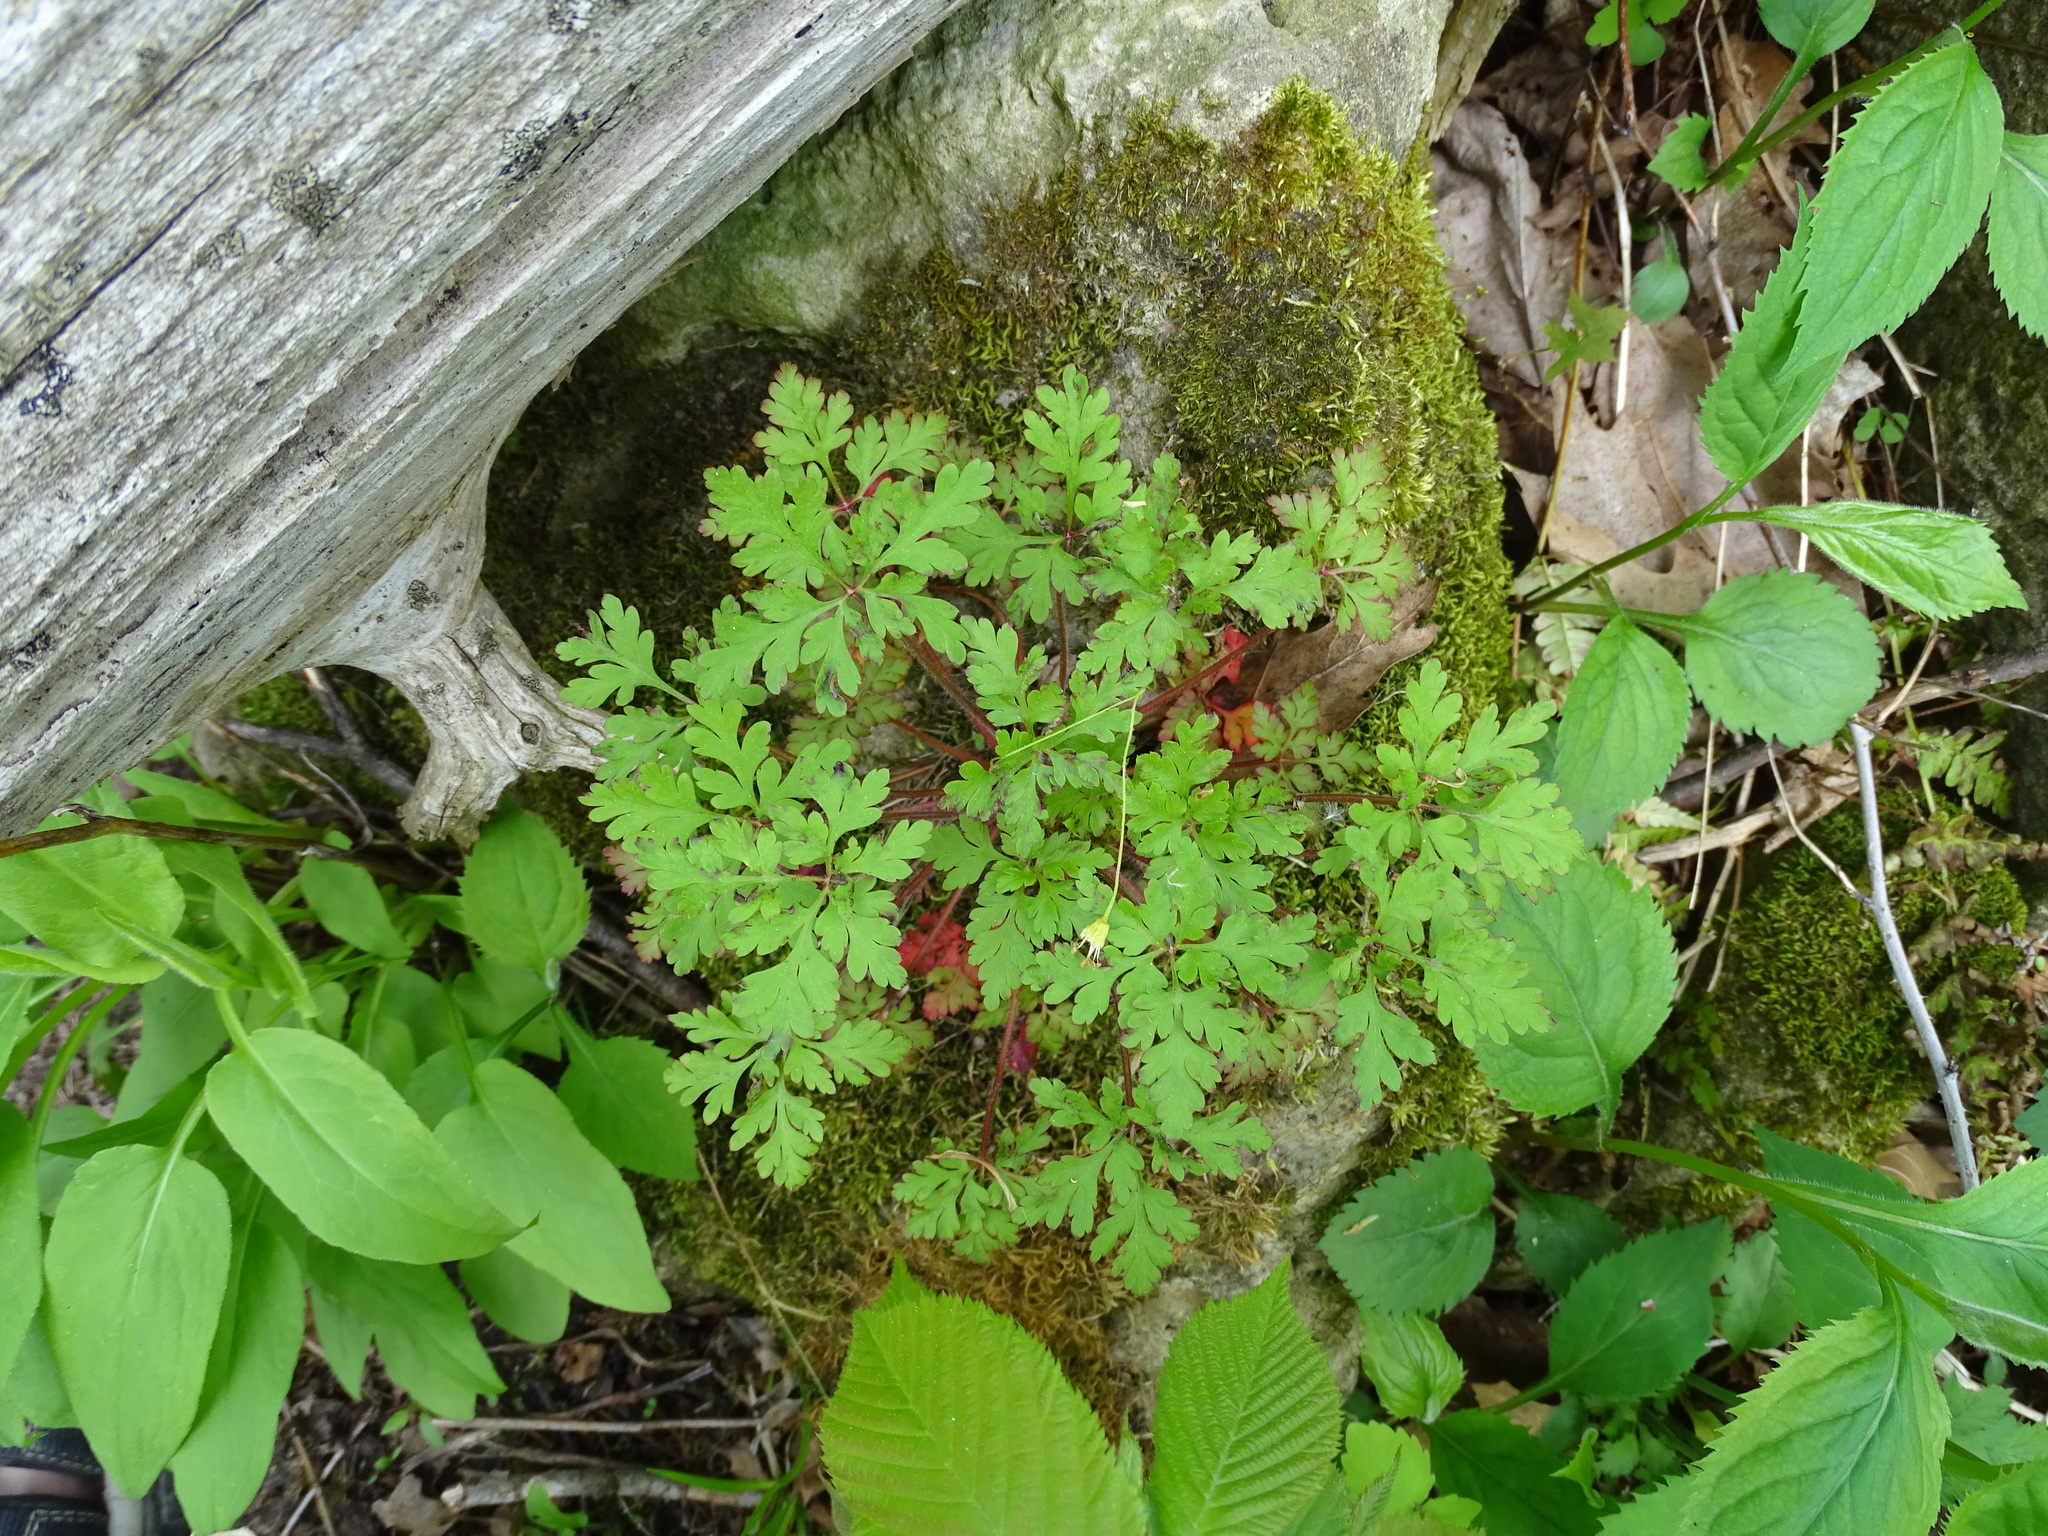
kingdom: Plantae
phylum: Tracheophyta
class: Magnoliopsida
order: Geraniales
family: Geraniaceae
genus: Geranium
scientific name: Geranium robertianum
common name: Herb-robert
